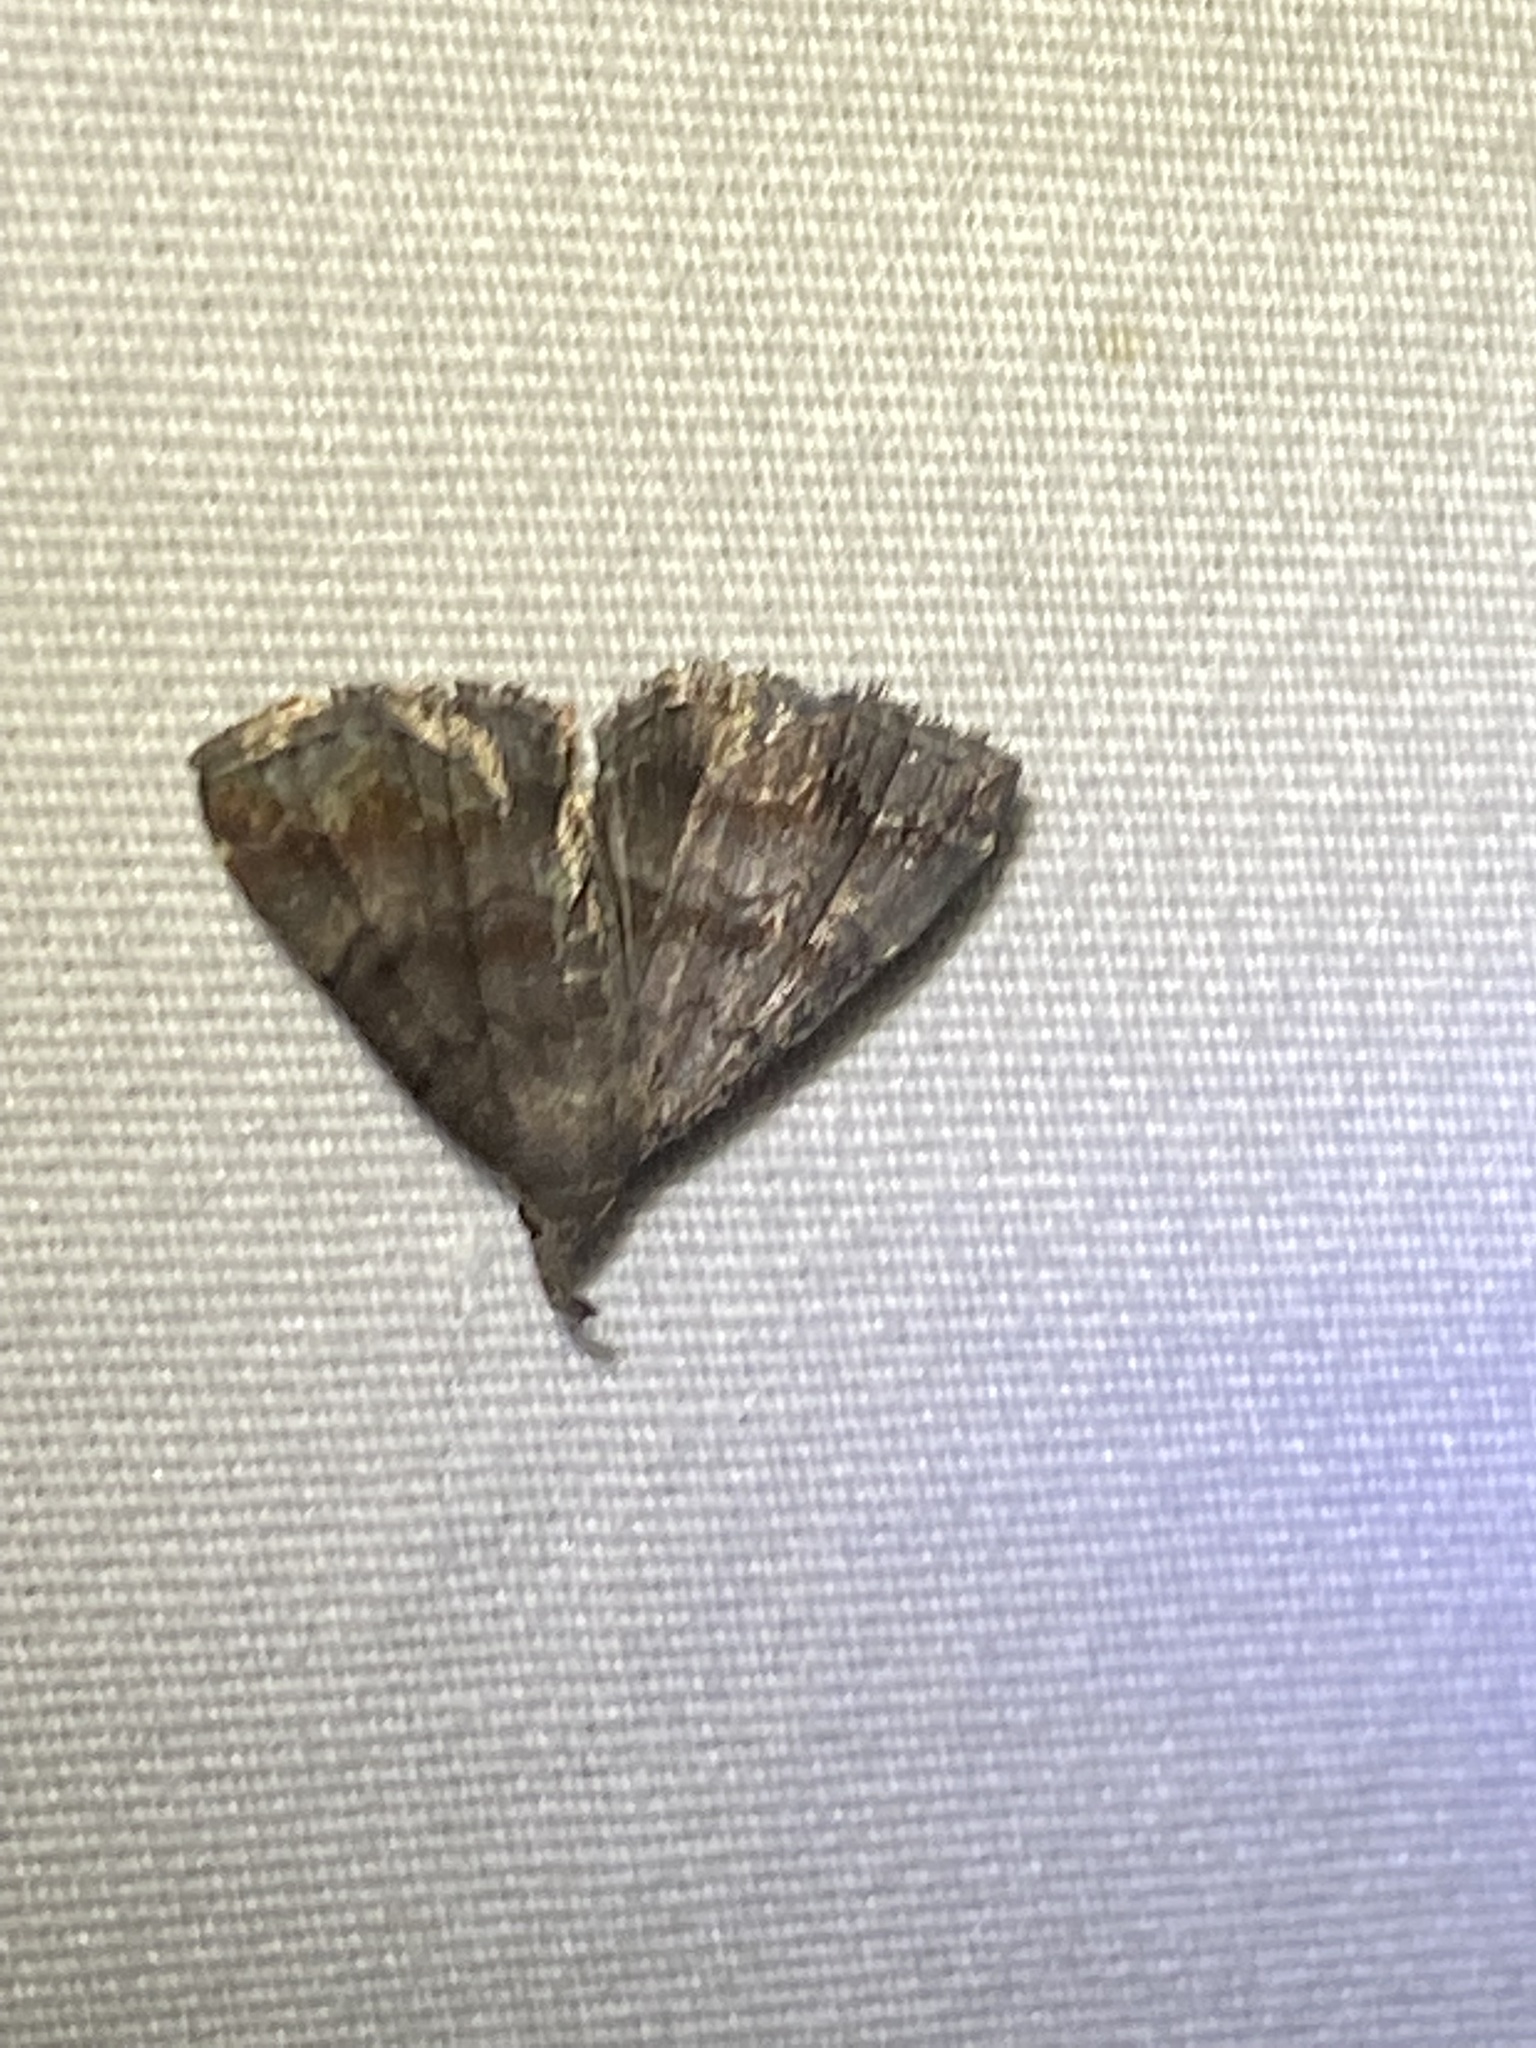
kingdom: Animalia
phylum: Arthropoda
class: Insecta
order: Lepidoptera
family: Erebidae
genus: Phalaenostola
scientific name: Phalaenostola larentioides
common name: Black-banded owlet
